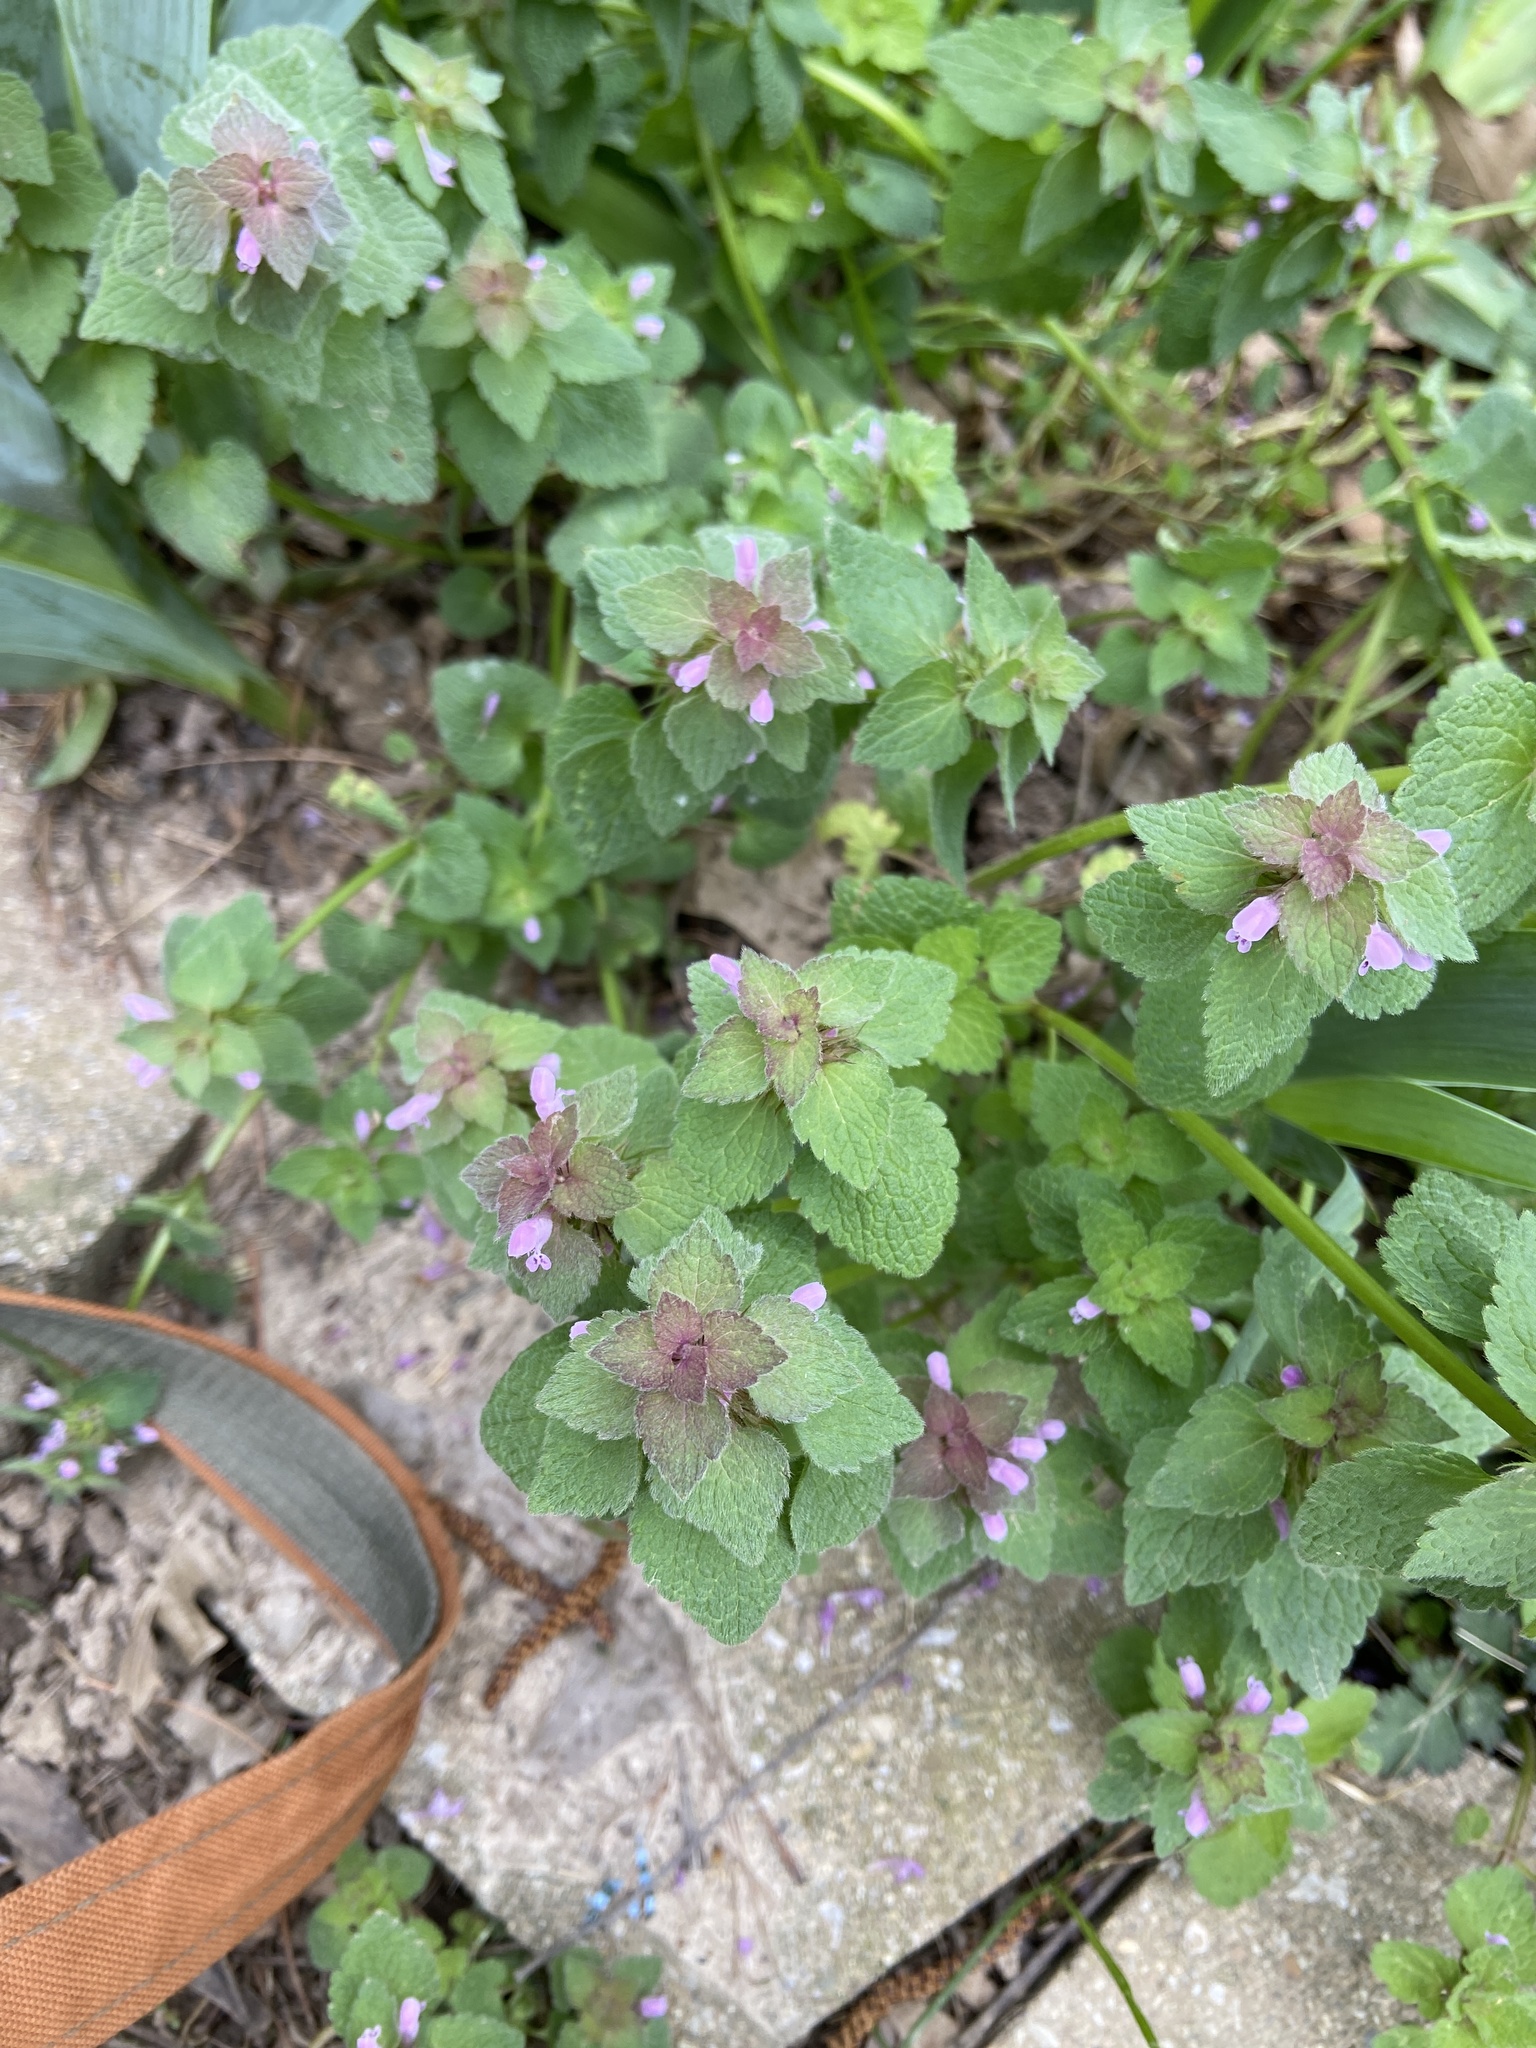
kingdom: Plantae
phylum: Tracheophyta
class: Magnoliopsida
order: Lamiales
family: Lamiaceae
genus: Lamium
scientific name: Lamium purpureum
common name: Red dead-nettle
